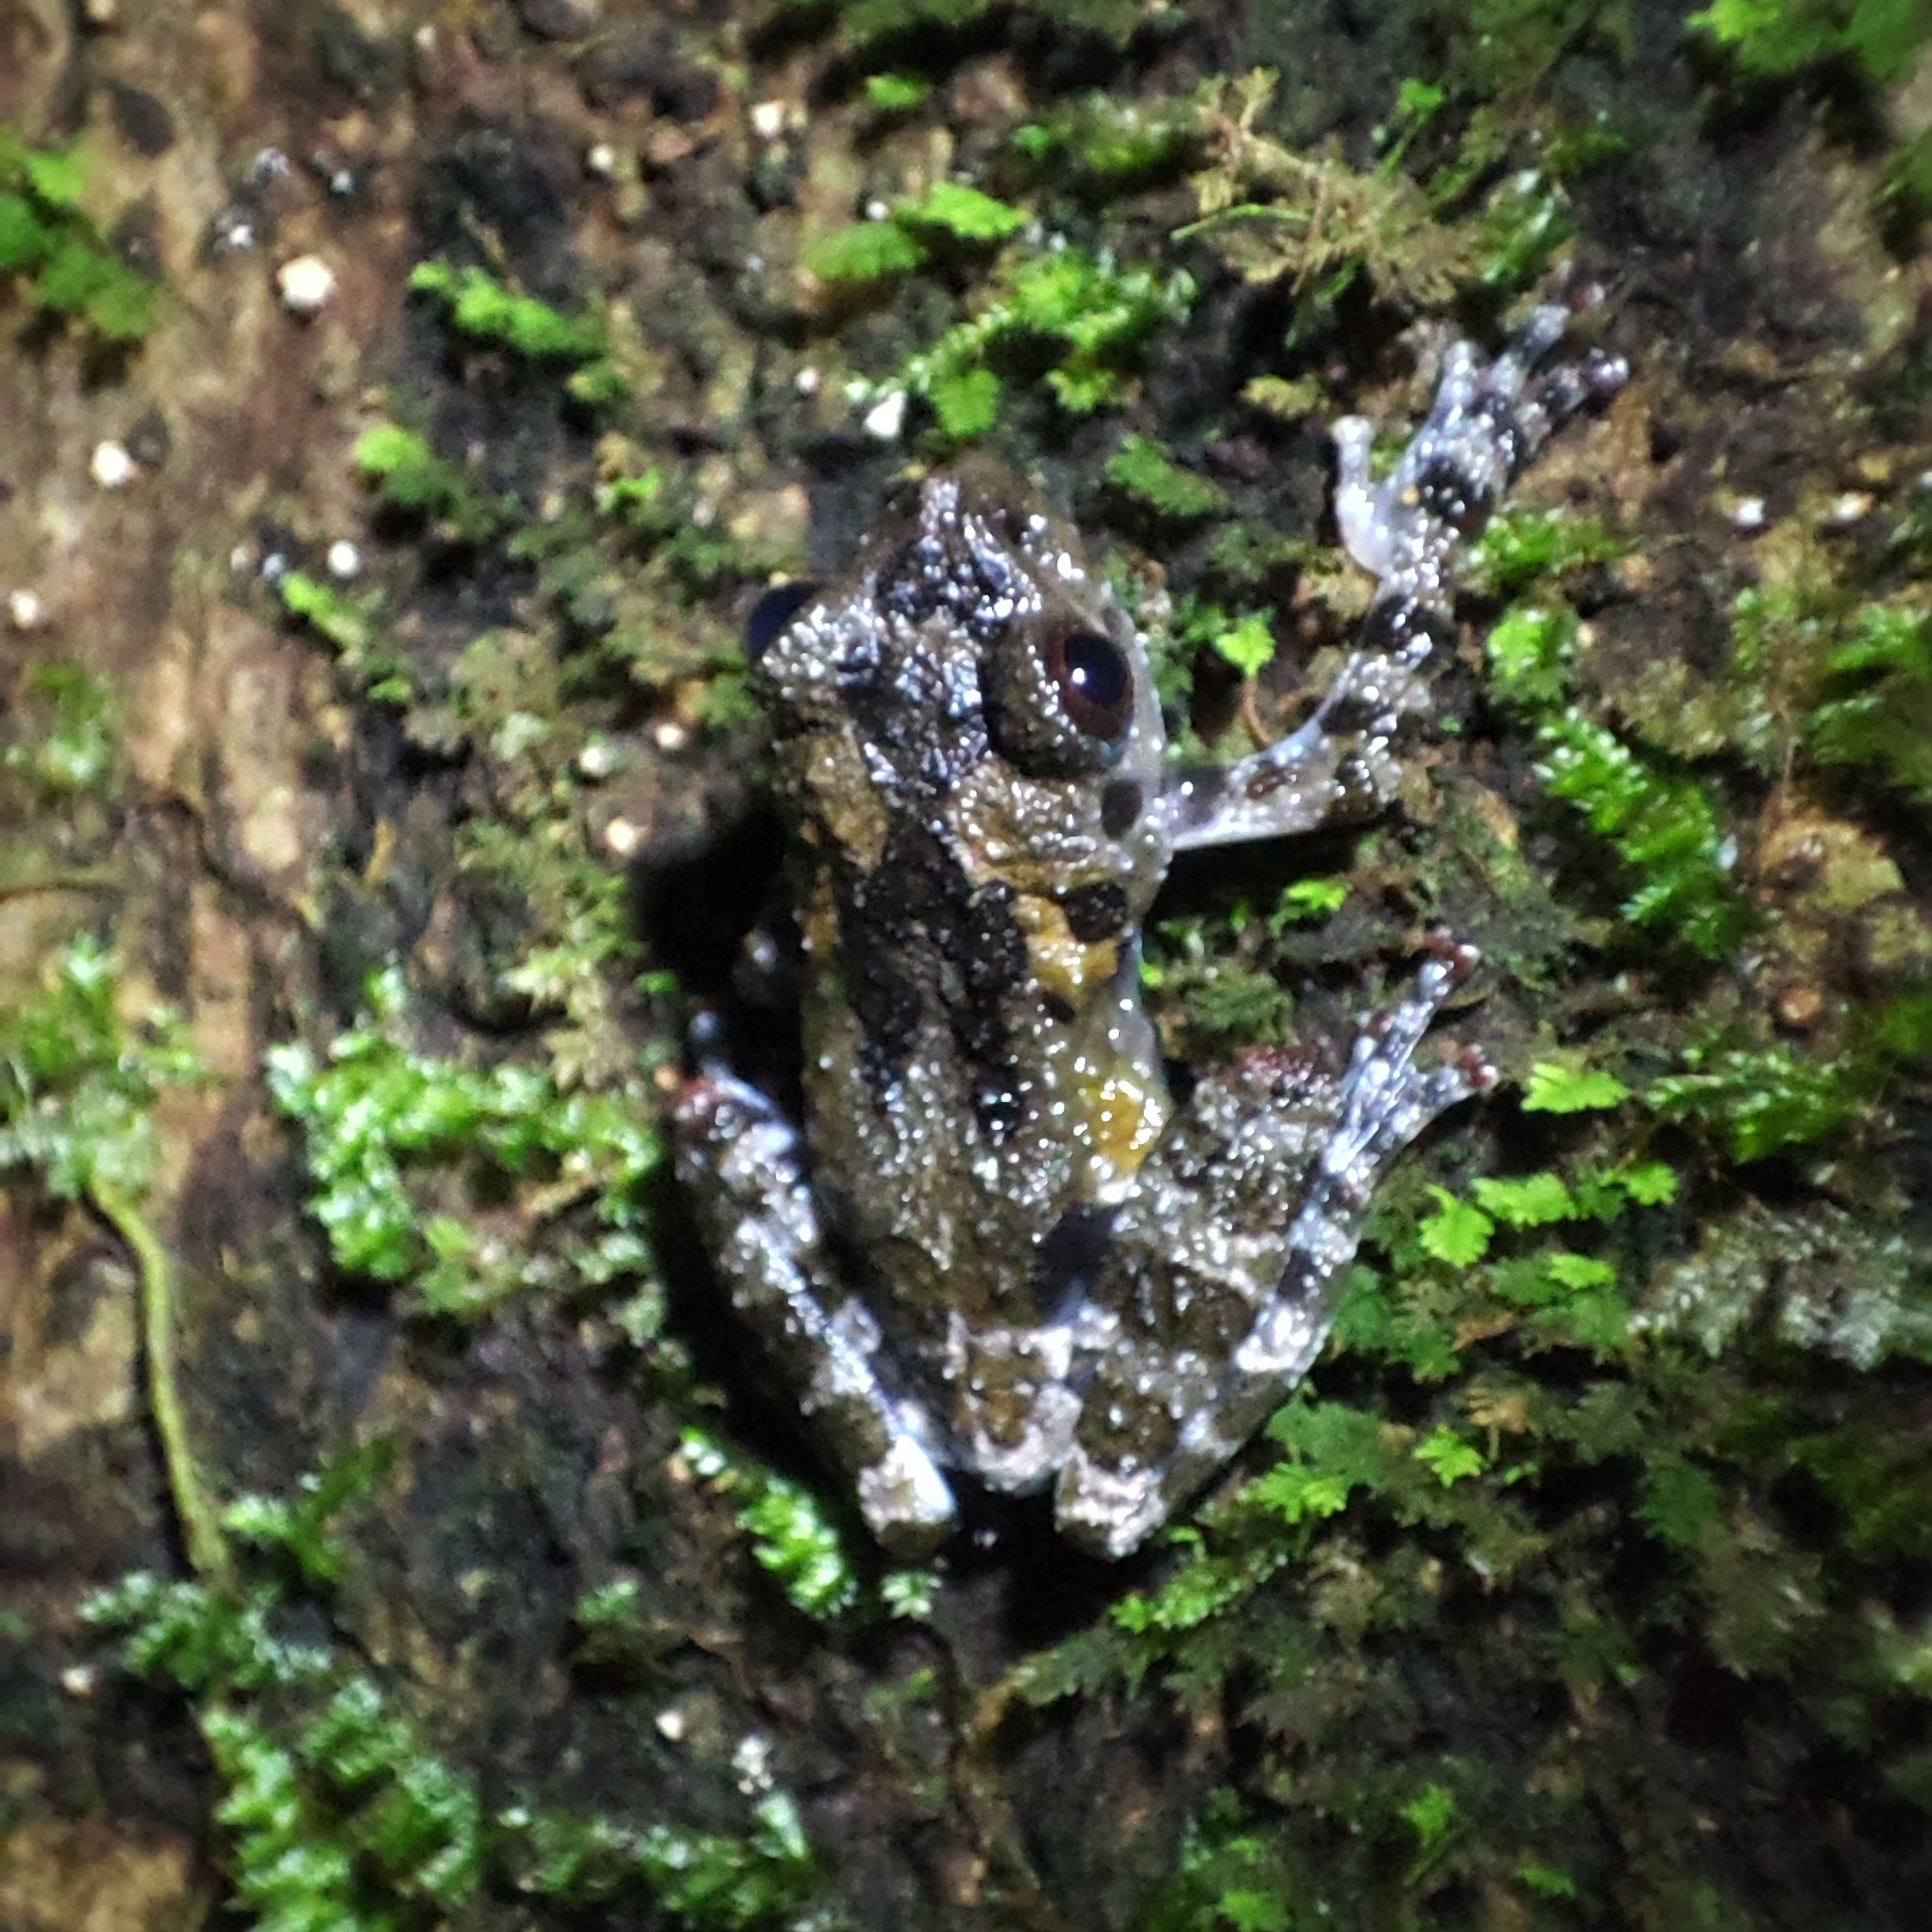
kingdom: Animalia
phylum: Chordata
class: Amphibia
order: Anura
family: Rhacophoridae
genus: Theloderma
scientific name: Theloderma vietnamense
